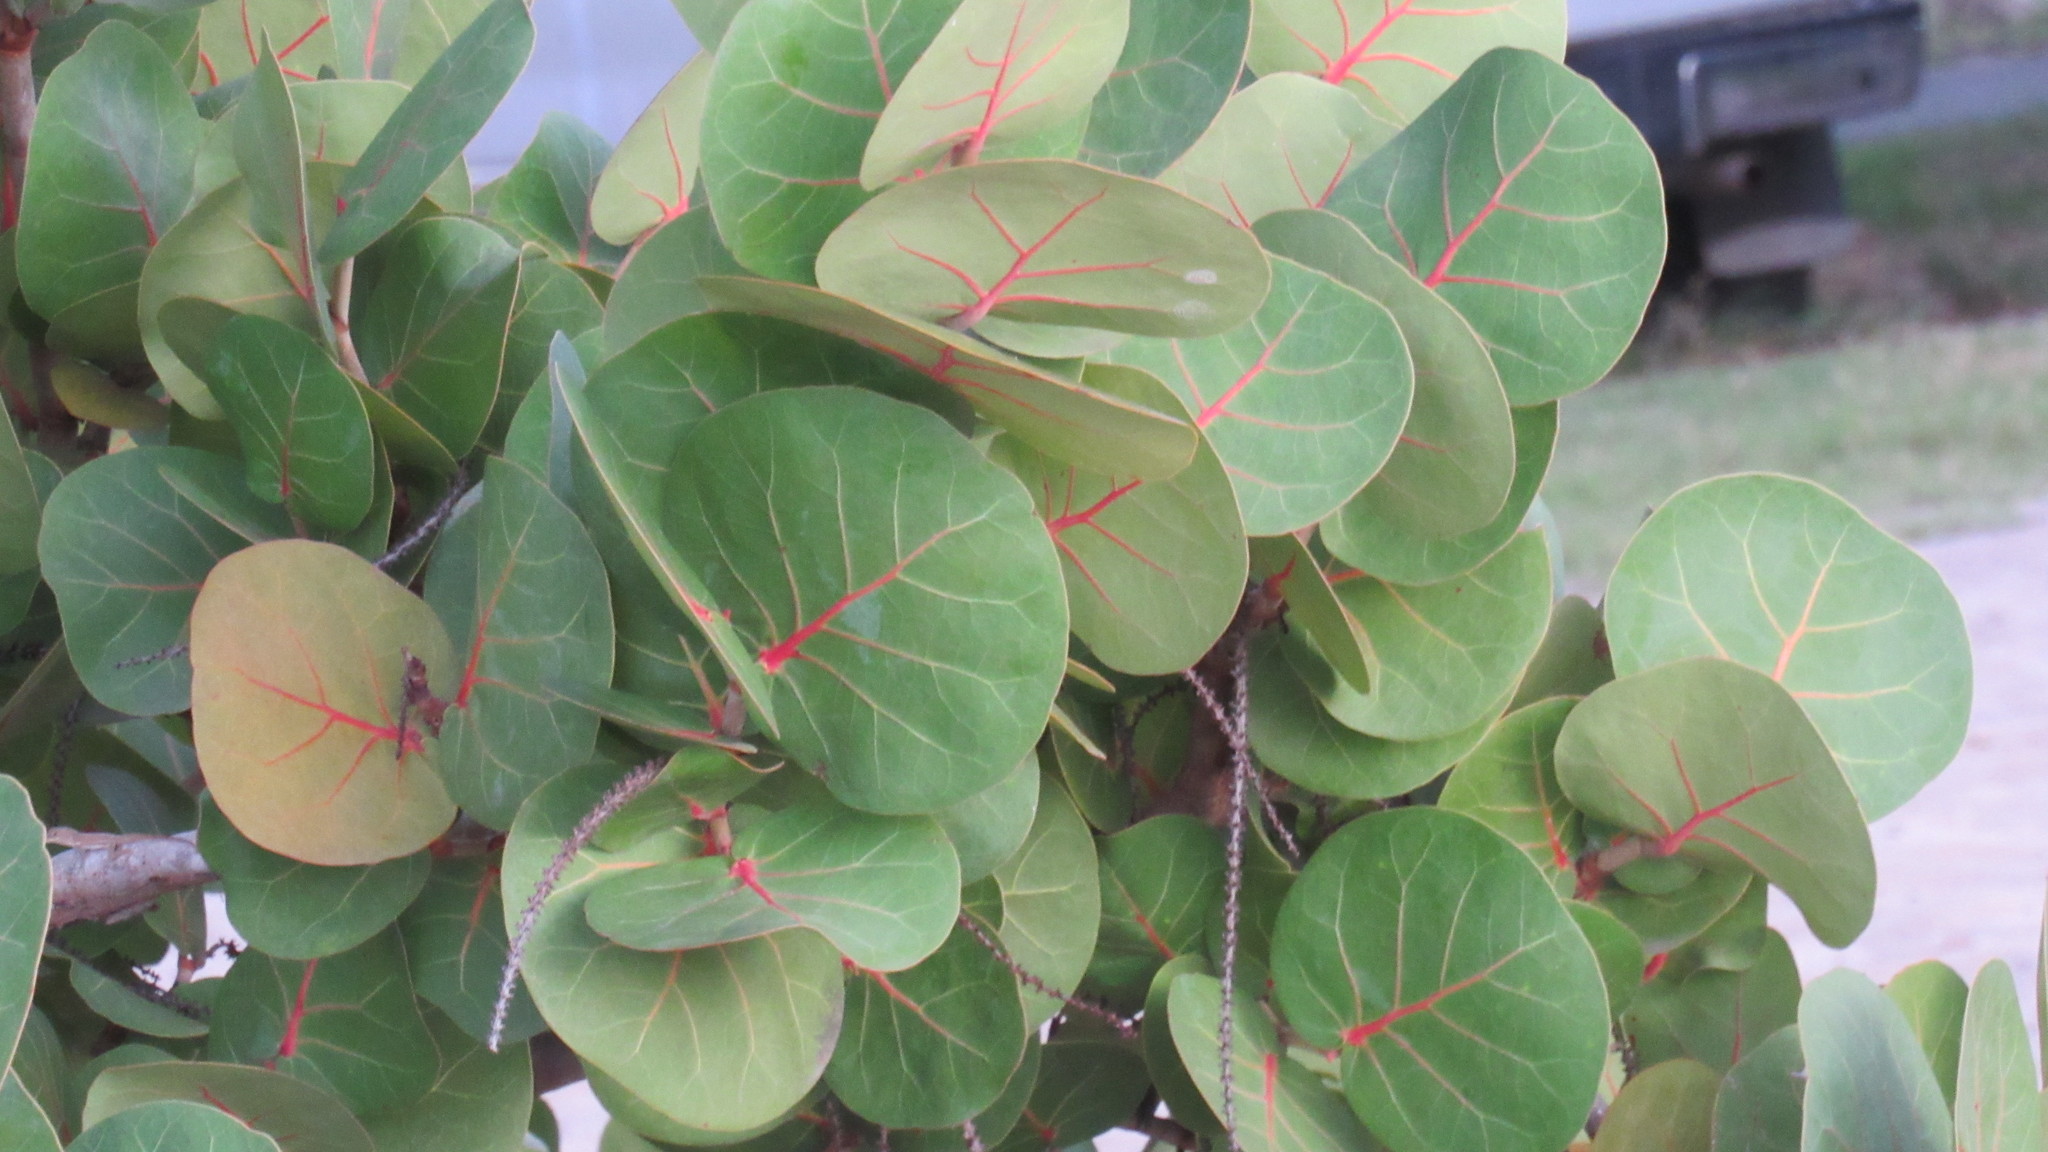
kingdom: Plantae
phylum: Tracheophyta
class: Magnoliopsida
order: Caryophyllales
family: Polygonaceae
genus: Coccoloba
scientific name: Coccoloba uvifera
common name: Seagrape
